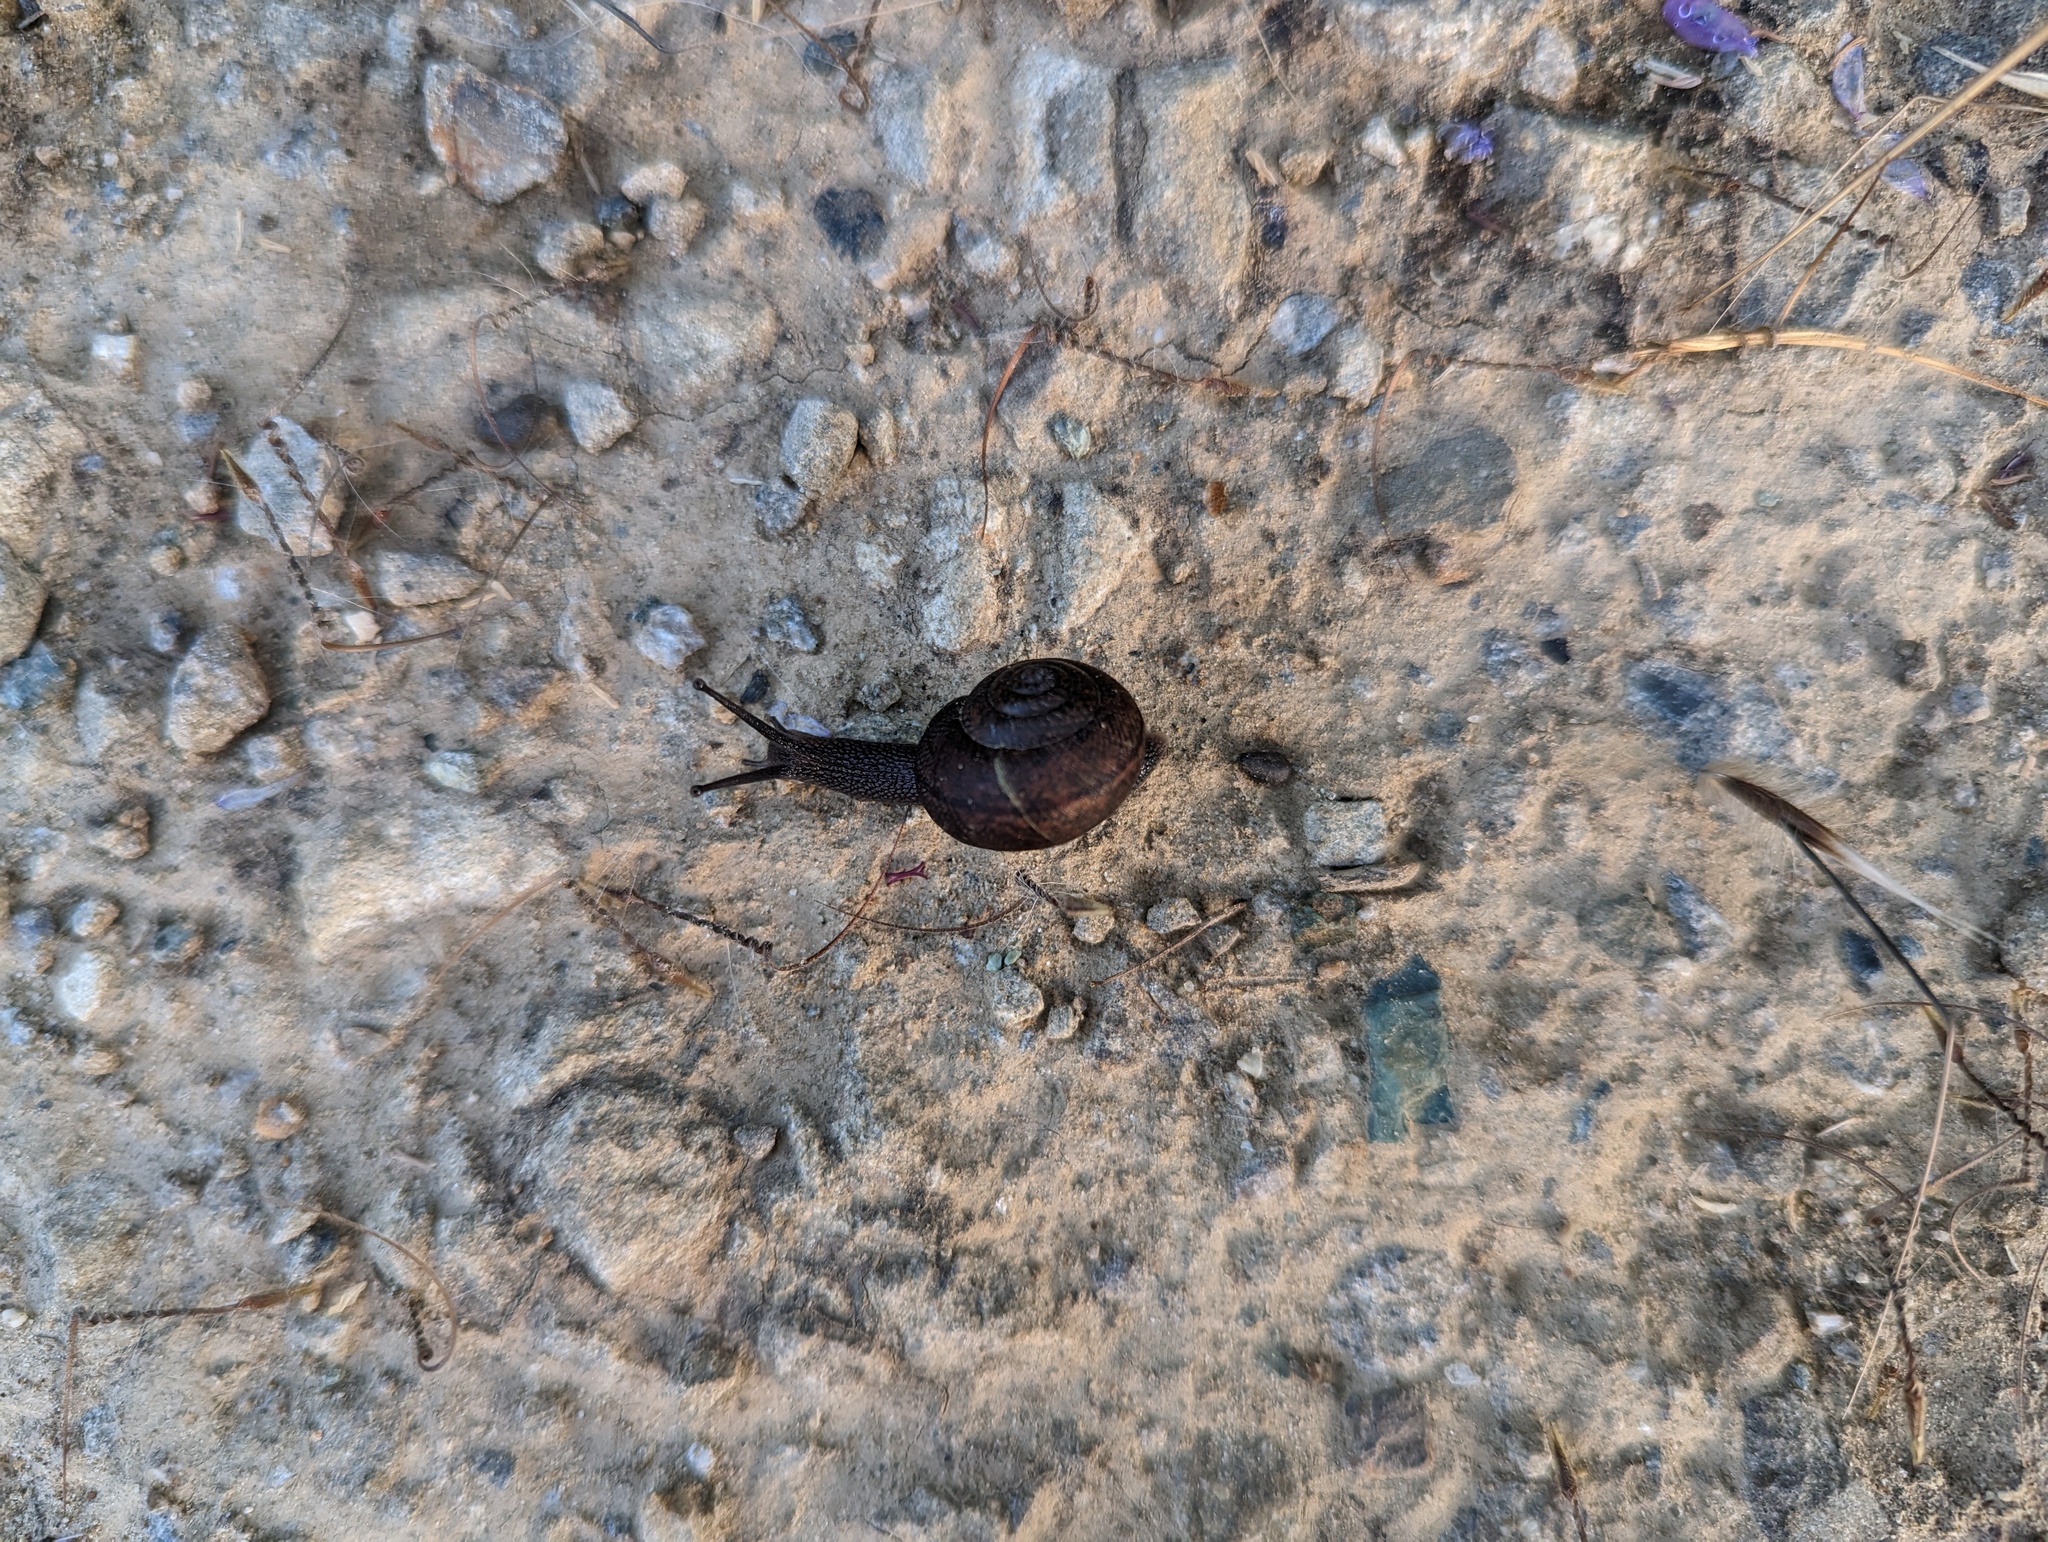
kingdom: Animalia
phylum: Mollusca
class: Gastropoda
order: Stylommatophora
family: Xanthonychidae
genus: Helminthoglypta
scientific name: Helminthoglypta nickliniana
